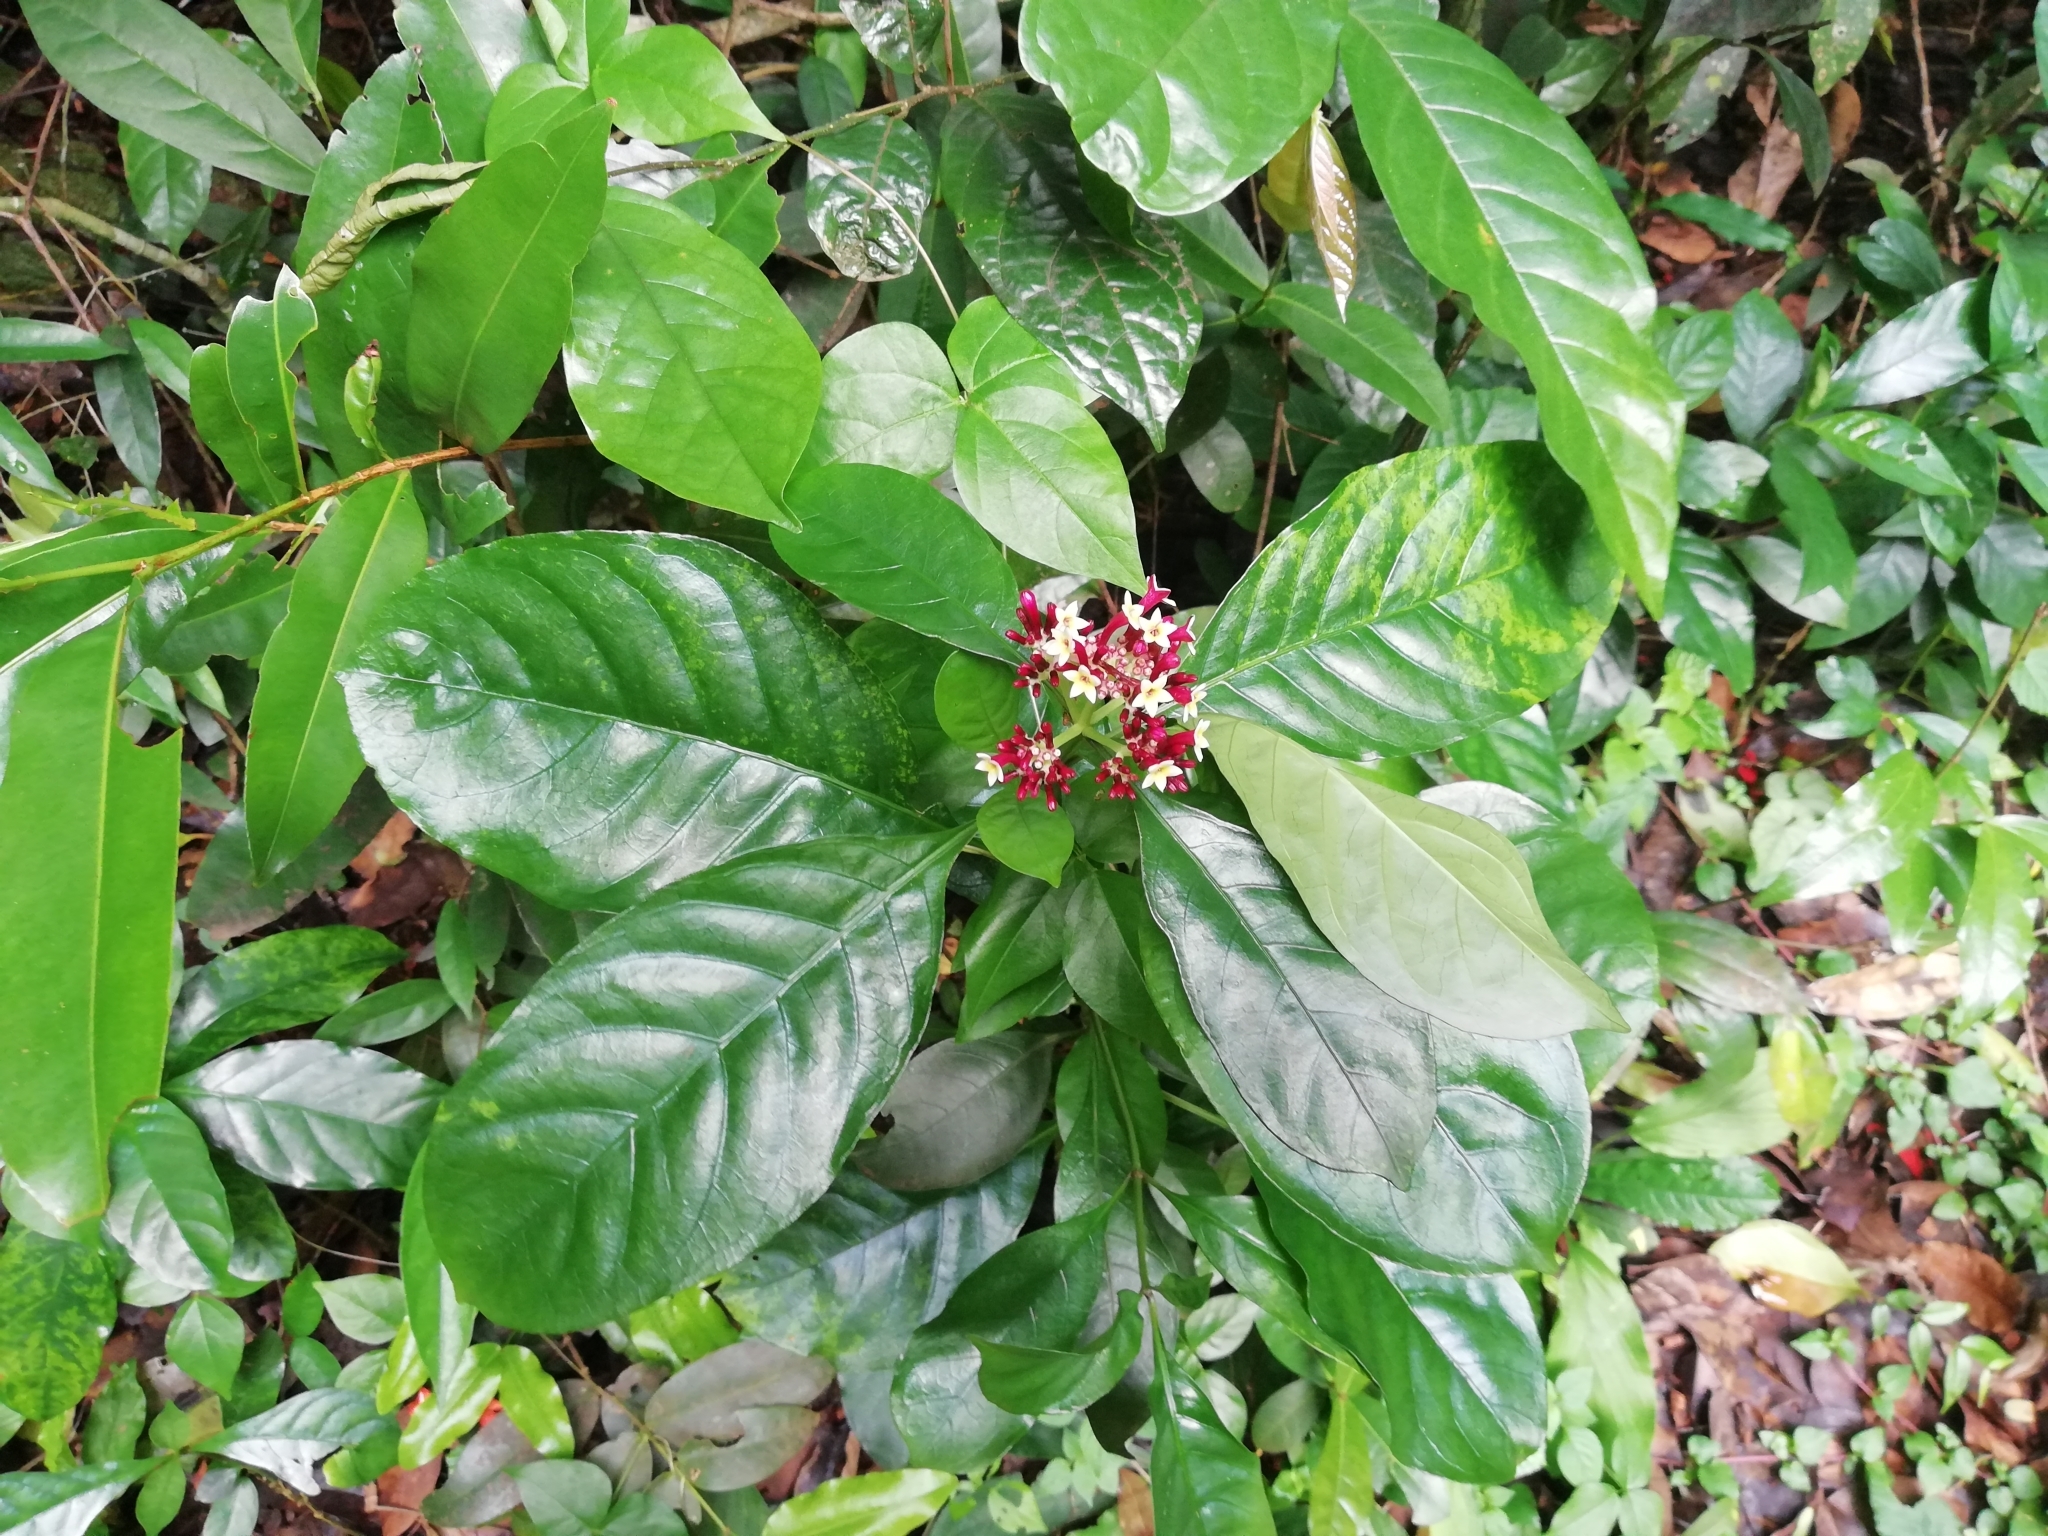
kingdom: Plantae
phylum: Tracheophyta
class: Magnoliopsida
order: Gentianales
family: Rubiaceae
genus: Chassalia
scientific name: Chassalia curviflora
